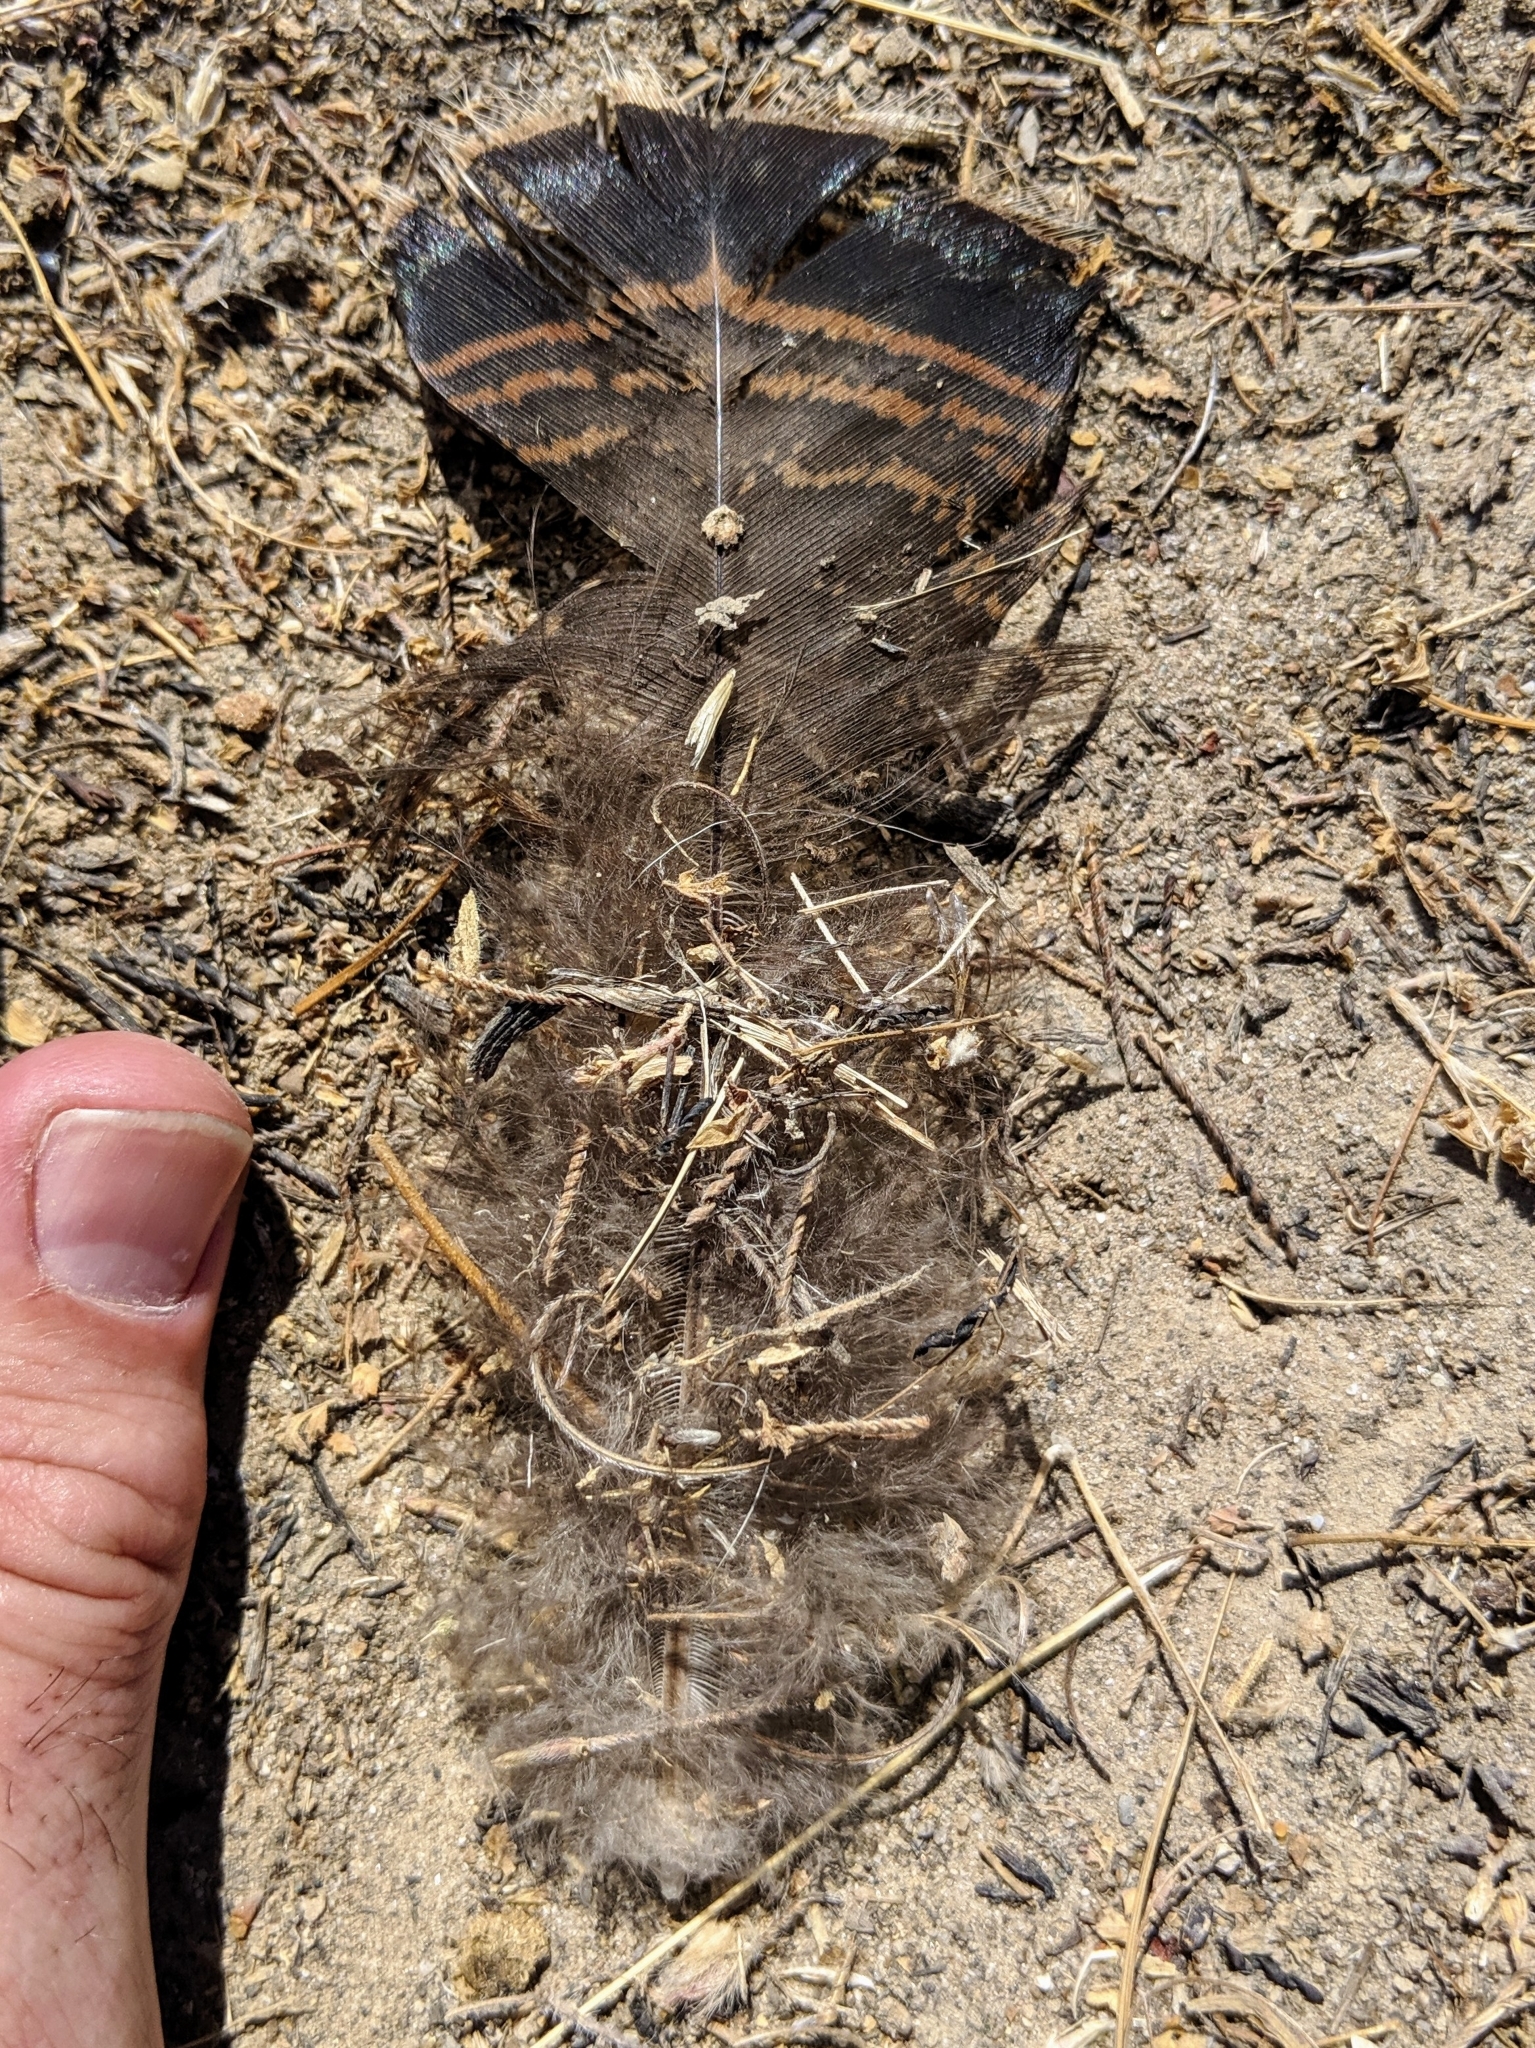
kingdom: Animalia
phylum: Chordata
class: Aves
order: Galliformes
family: Phasianidae
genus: Meleagris
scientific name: Meleagris gallopavo
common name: Wild turkey
